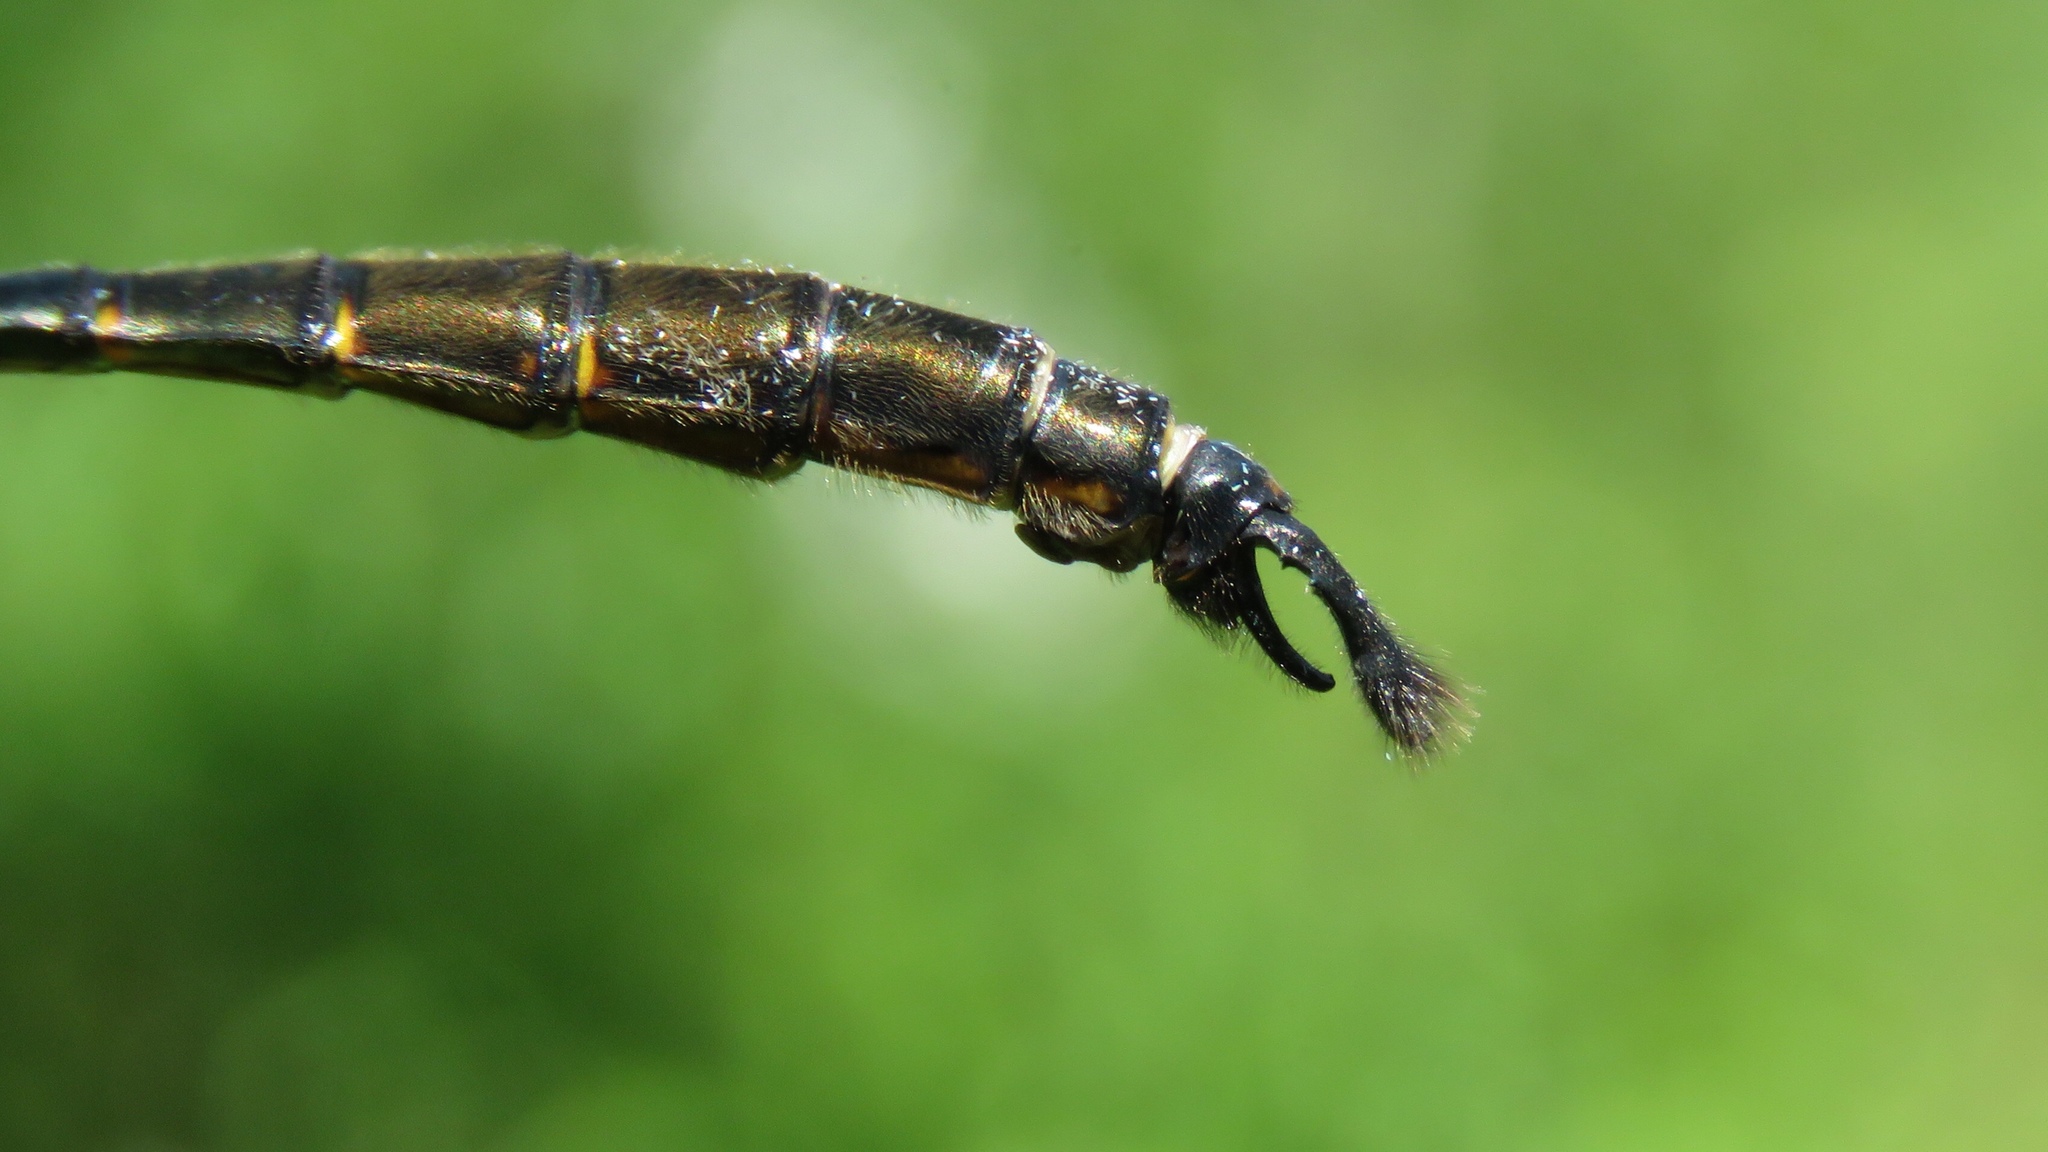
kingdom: Animalia
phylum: Arthropoda
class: Insecta
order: Odonata
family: Corduliidae
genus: Somatochlora
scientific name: Somatochlora walshii
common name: Brush-tipped emerald
